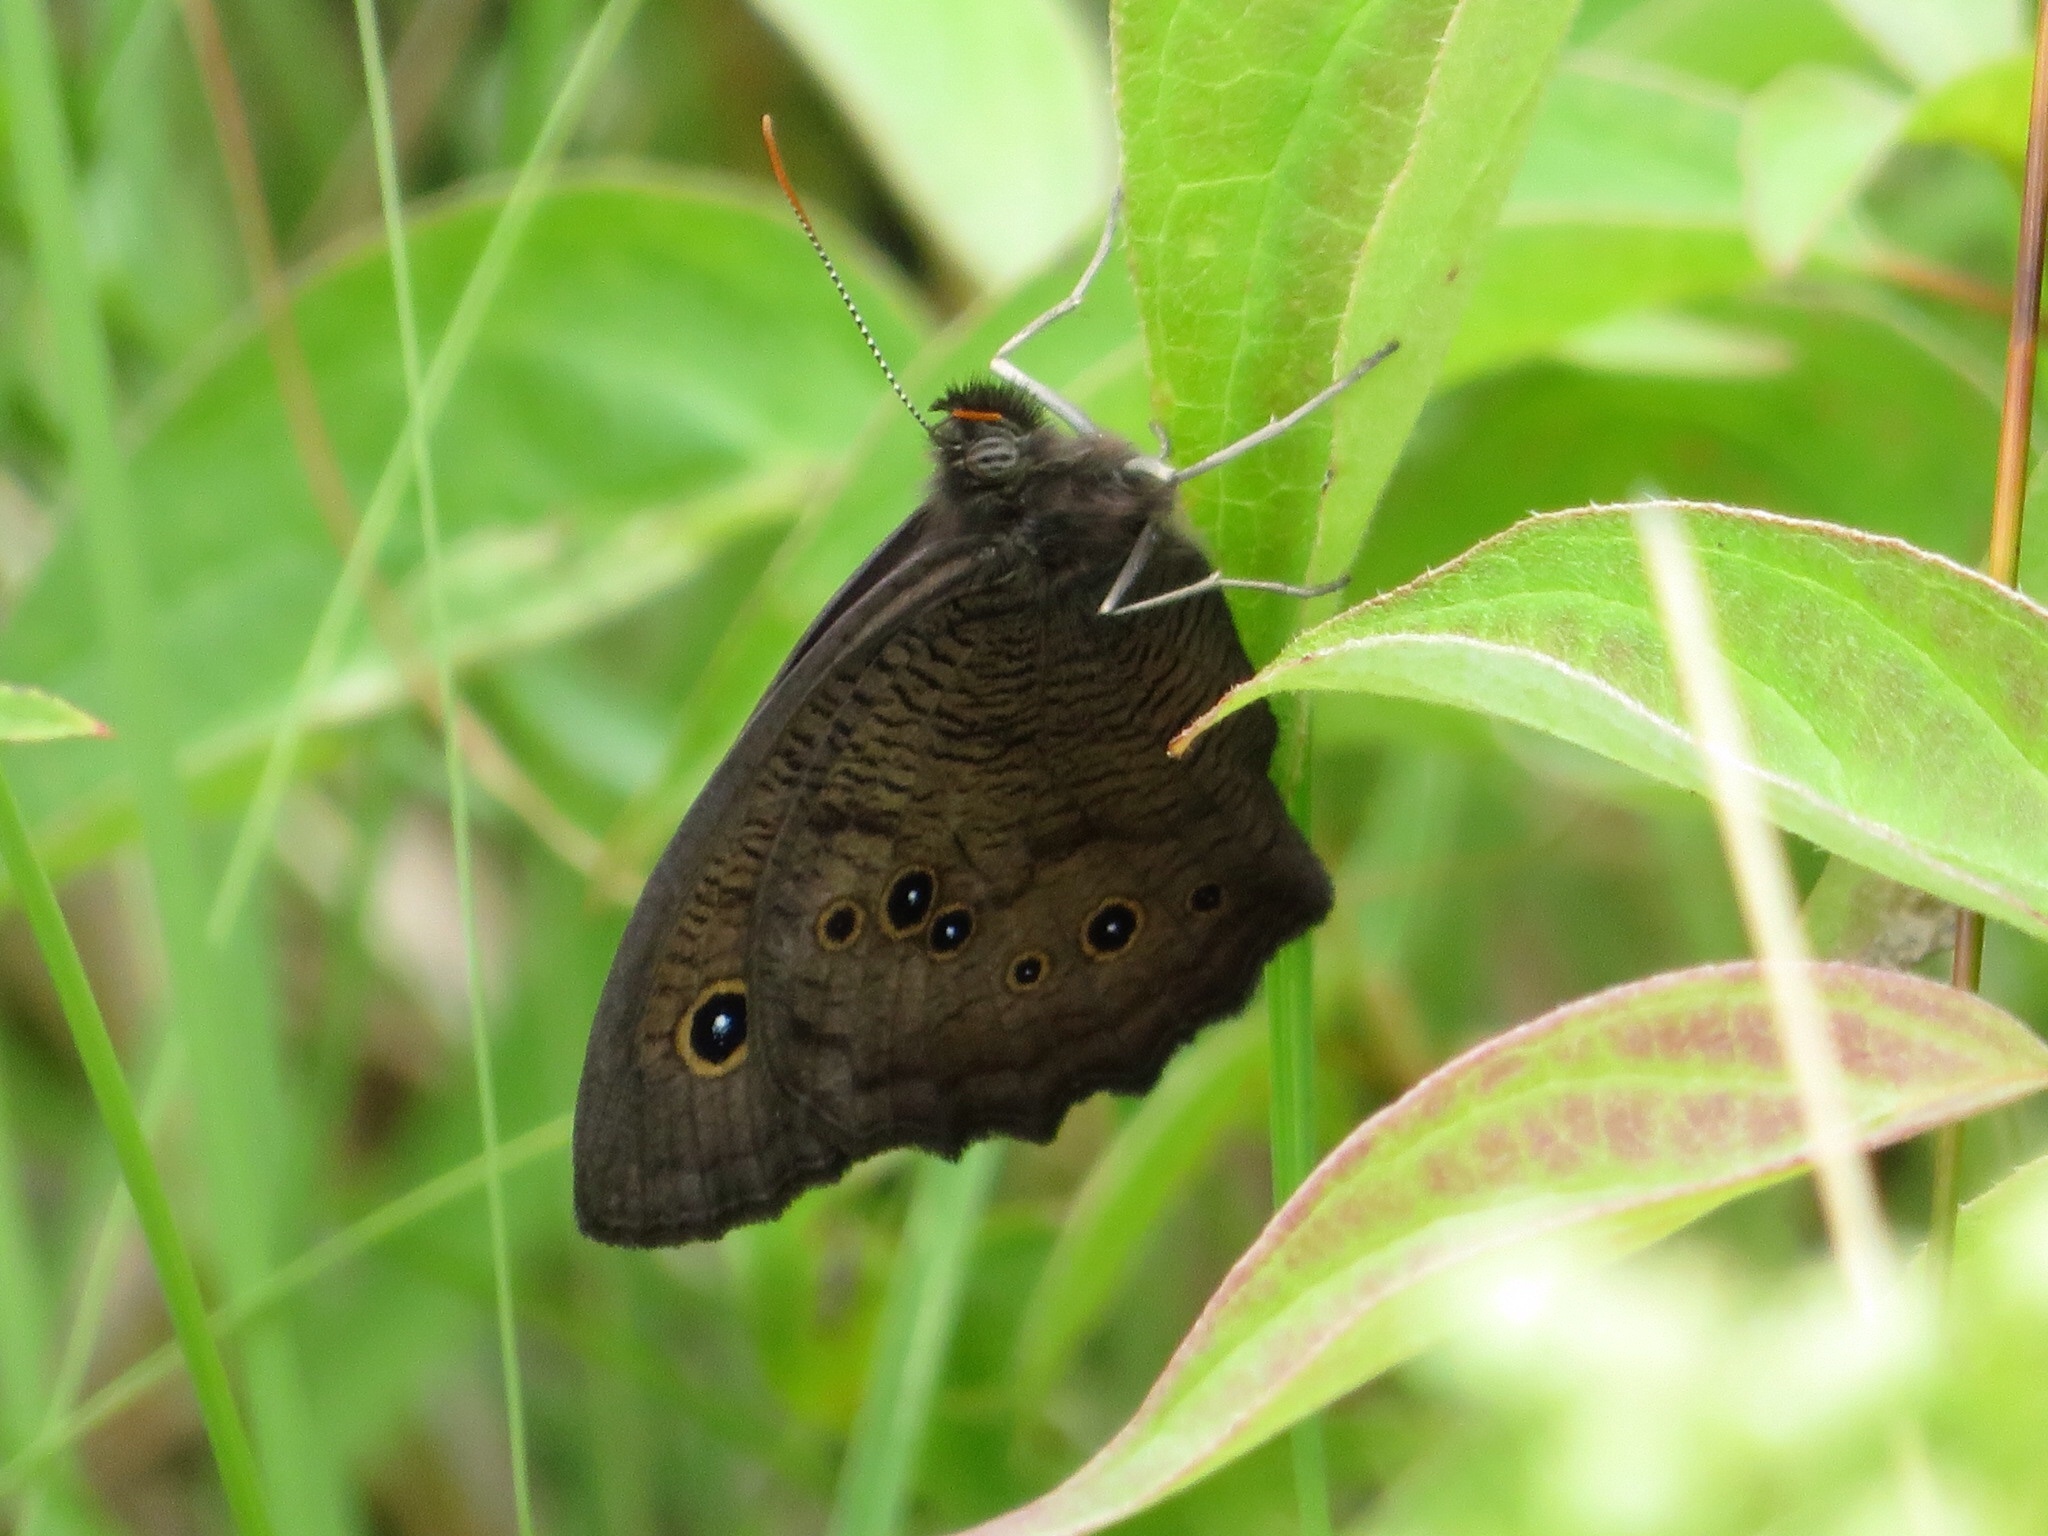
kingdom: Animalia
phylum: Arthropoda
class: Insecta
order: Lepidoptera
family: Nymphalidae
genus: Cercyonis
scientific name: Cercyonis pegala
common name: Common wood-nymph
